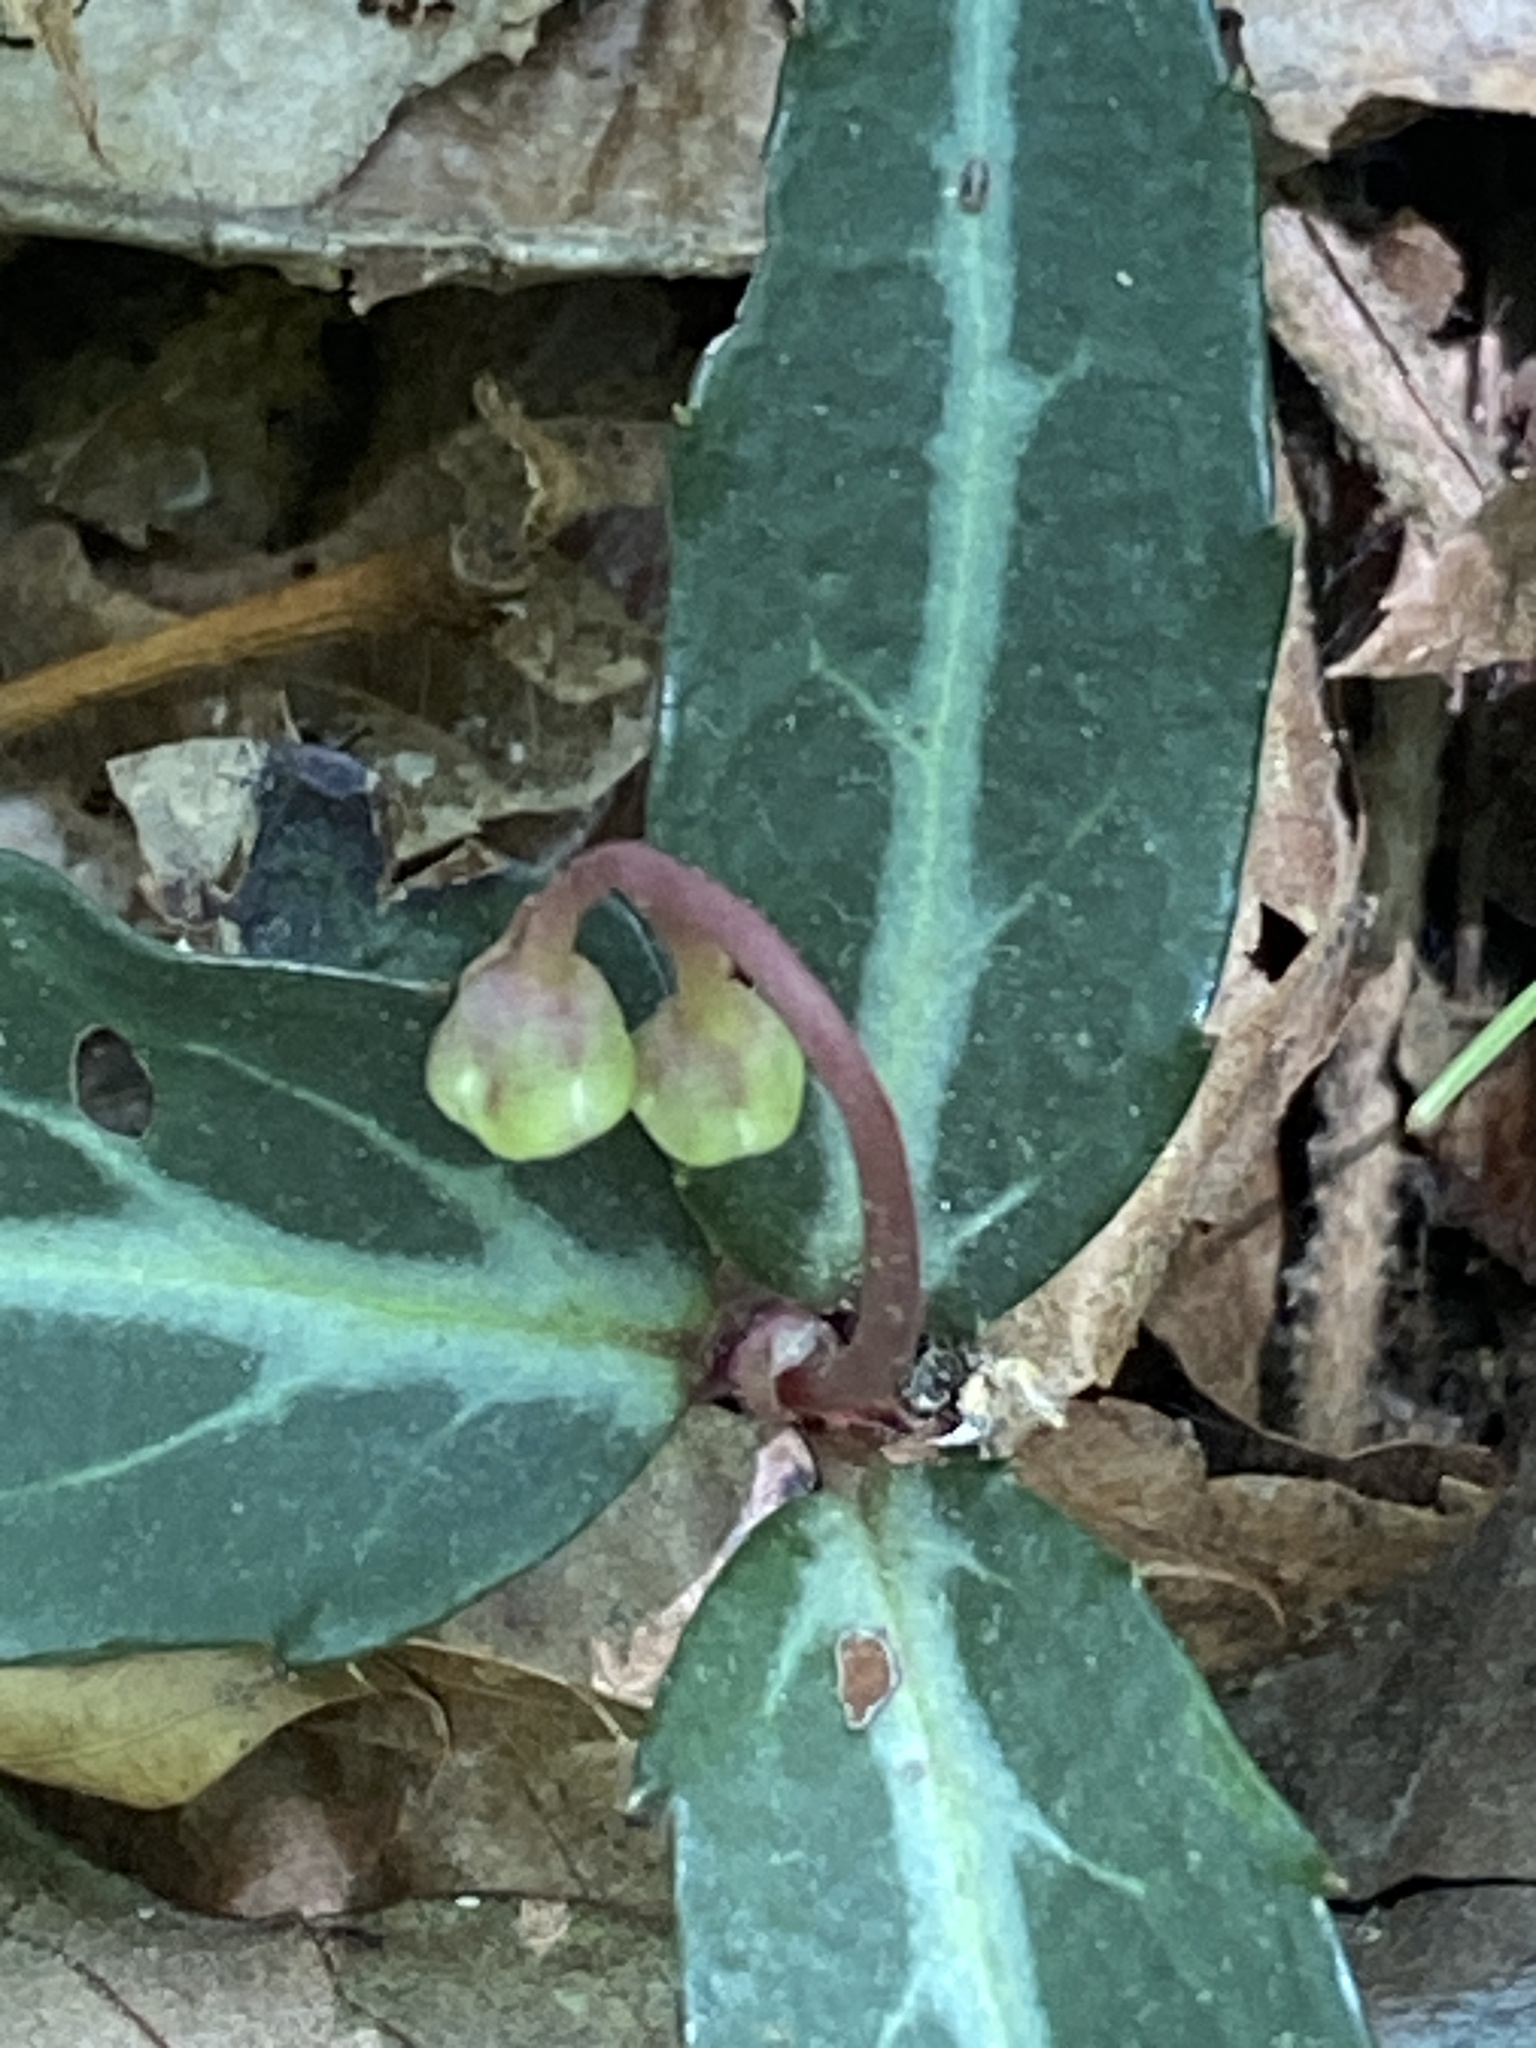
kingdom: Plantae
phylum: Tracheophyta
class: Magnoliopsida
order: Ericales
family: Ericaceae
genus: Chimaphila
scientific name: Chimaphila maculata
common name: Spotted pipsissewa
